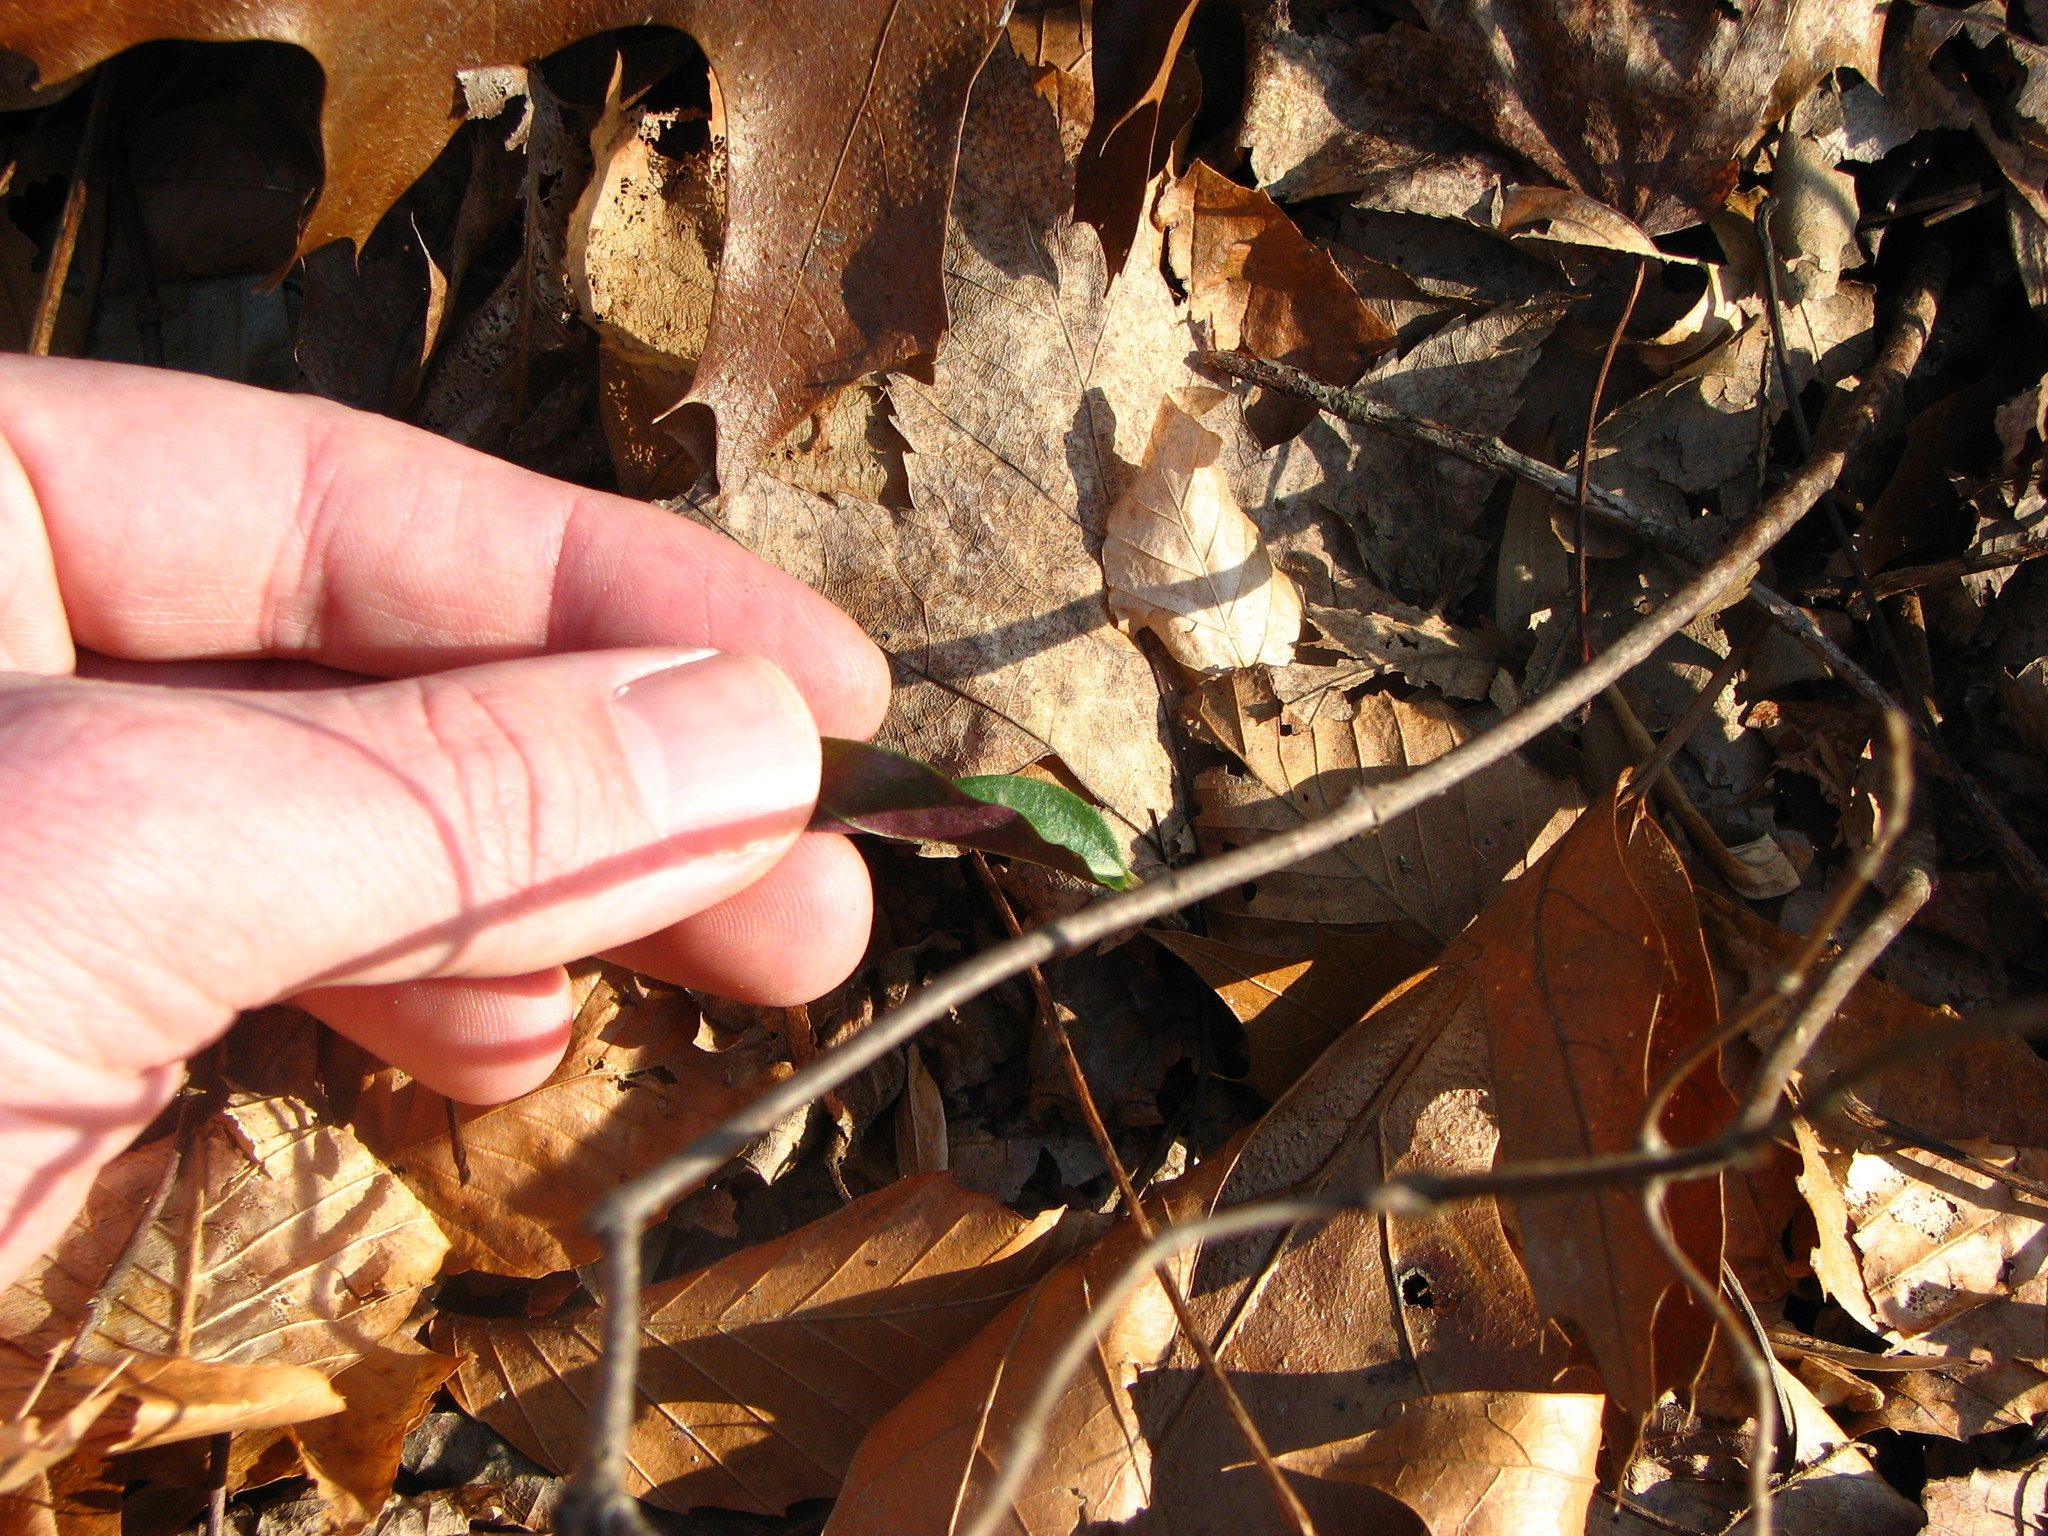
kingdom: Plantae
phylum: Tracheophyta
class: Liliopsida
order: Asparagales
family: Orchidaceae
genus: Tipularia
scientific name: Tipularia discolor
